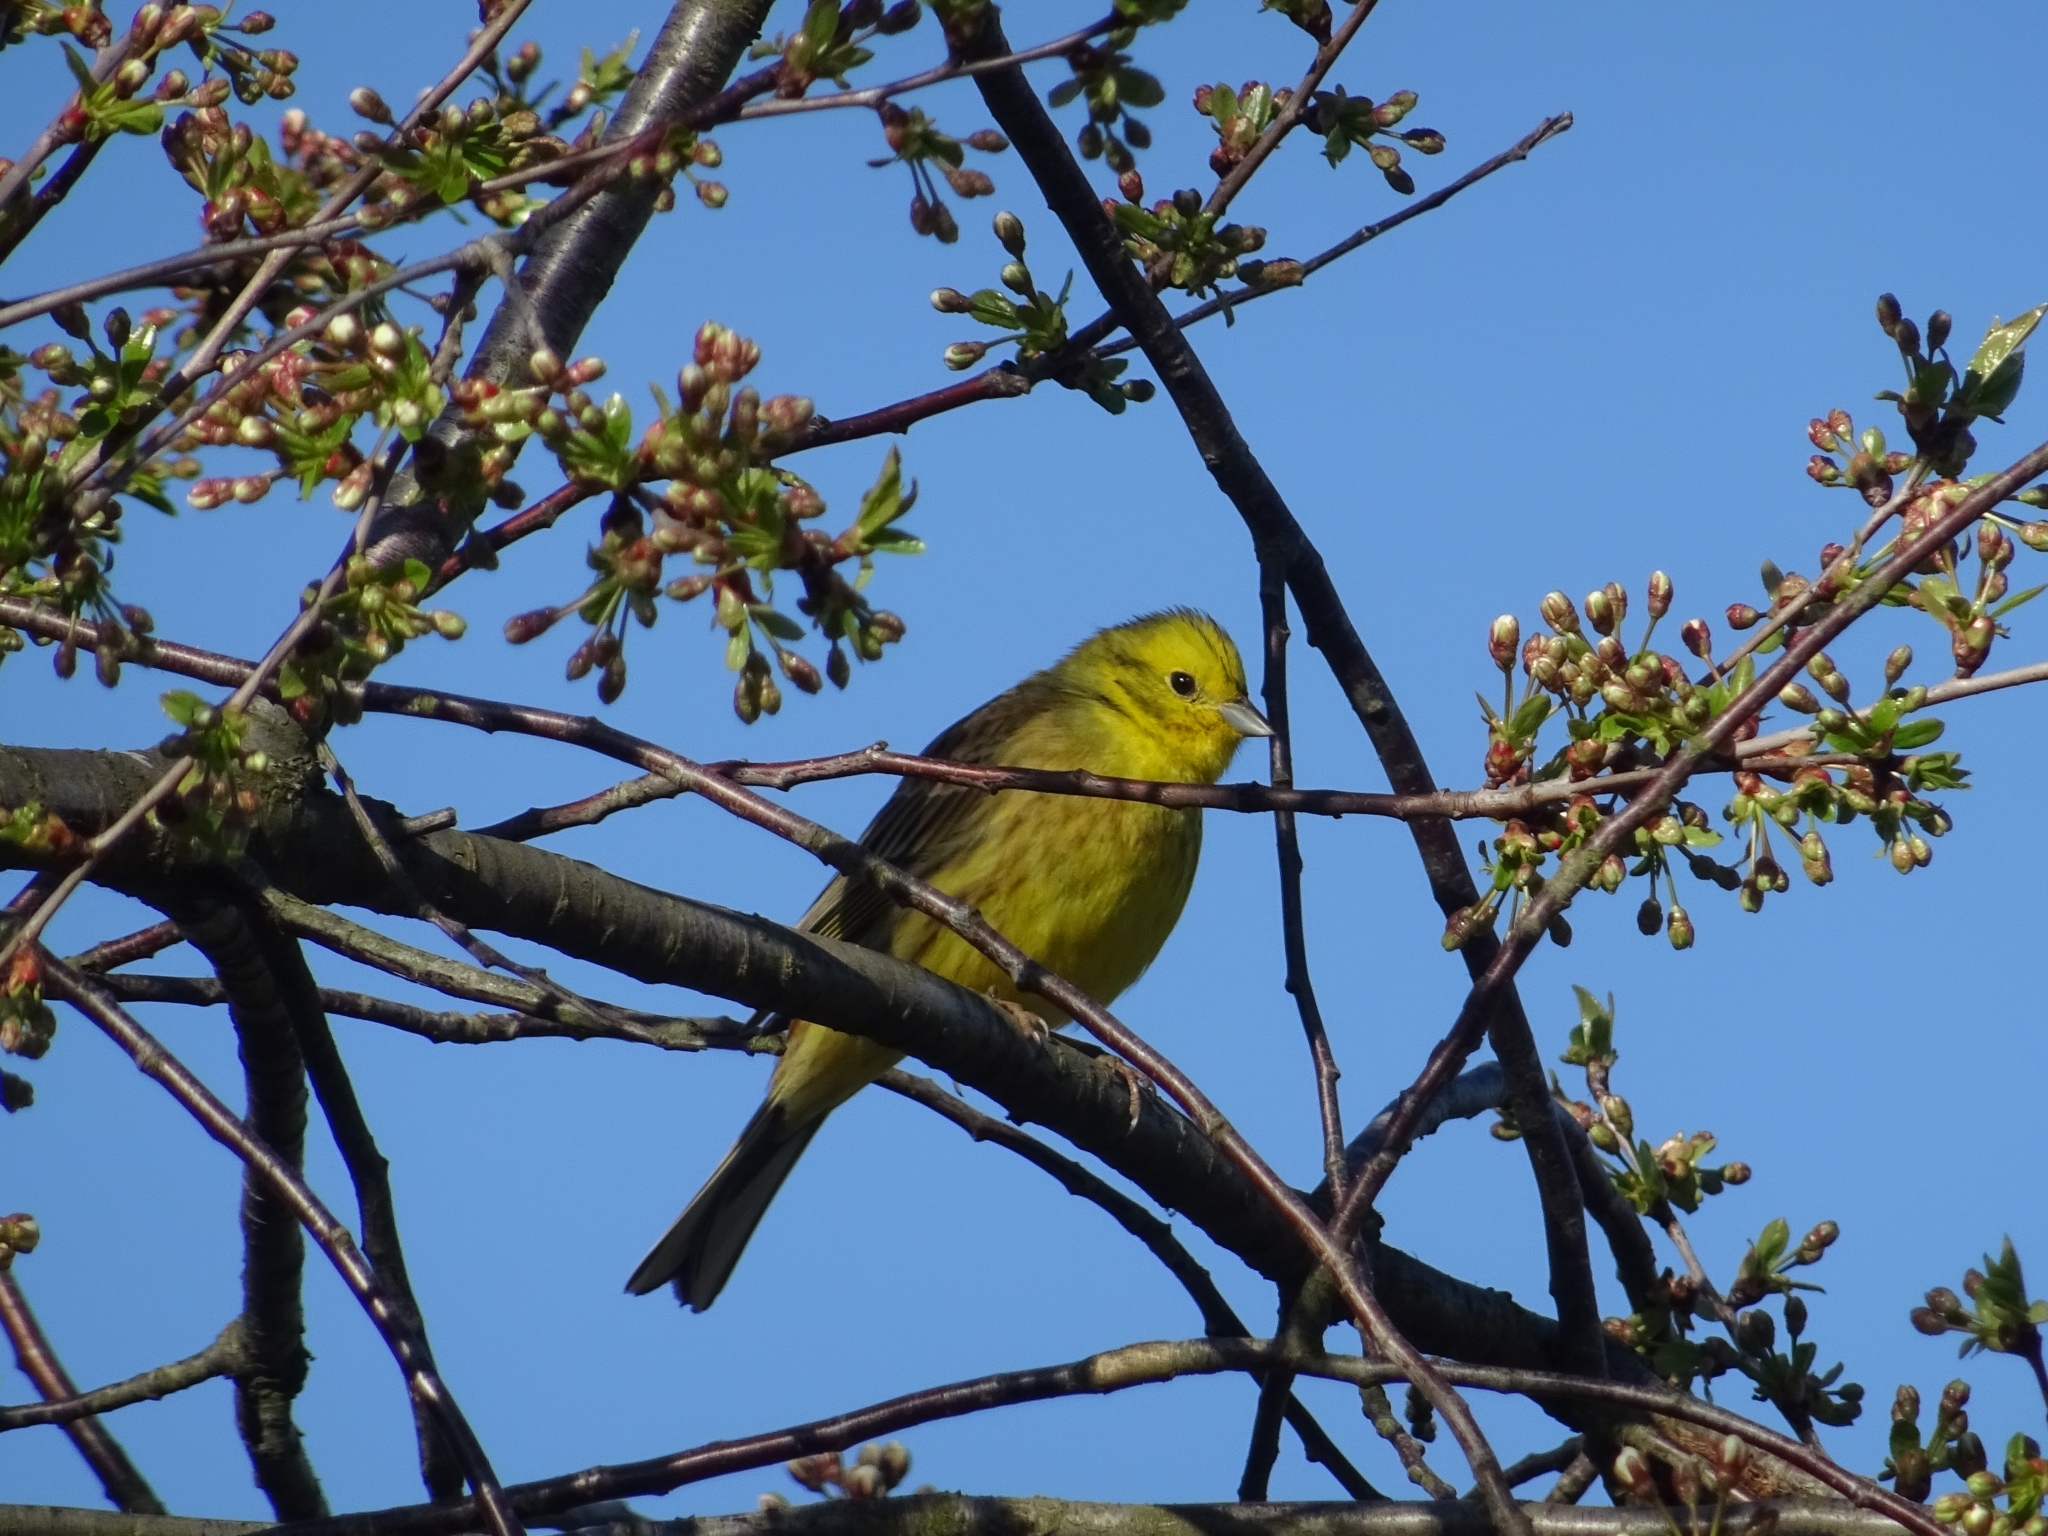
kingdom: Animalia
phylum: Chordata
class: Aves
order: Passeriformes
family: Emberizidae
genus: Emberiza
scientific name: Emberiza citrinella
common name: Yellowhammer
